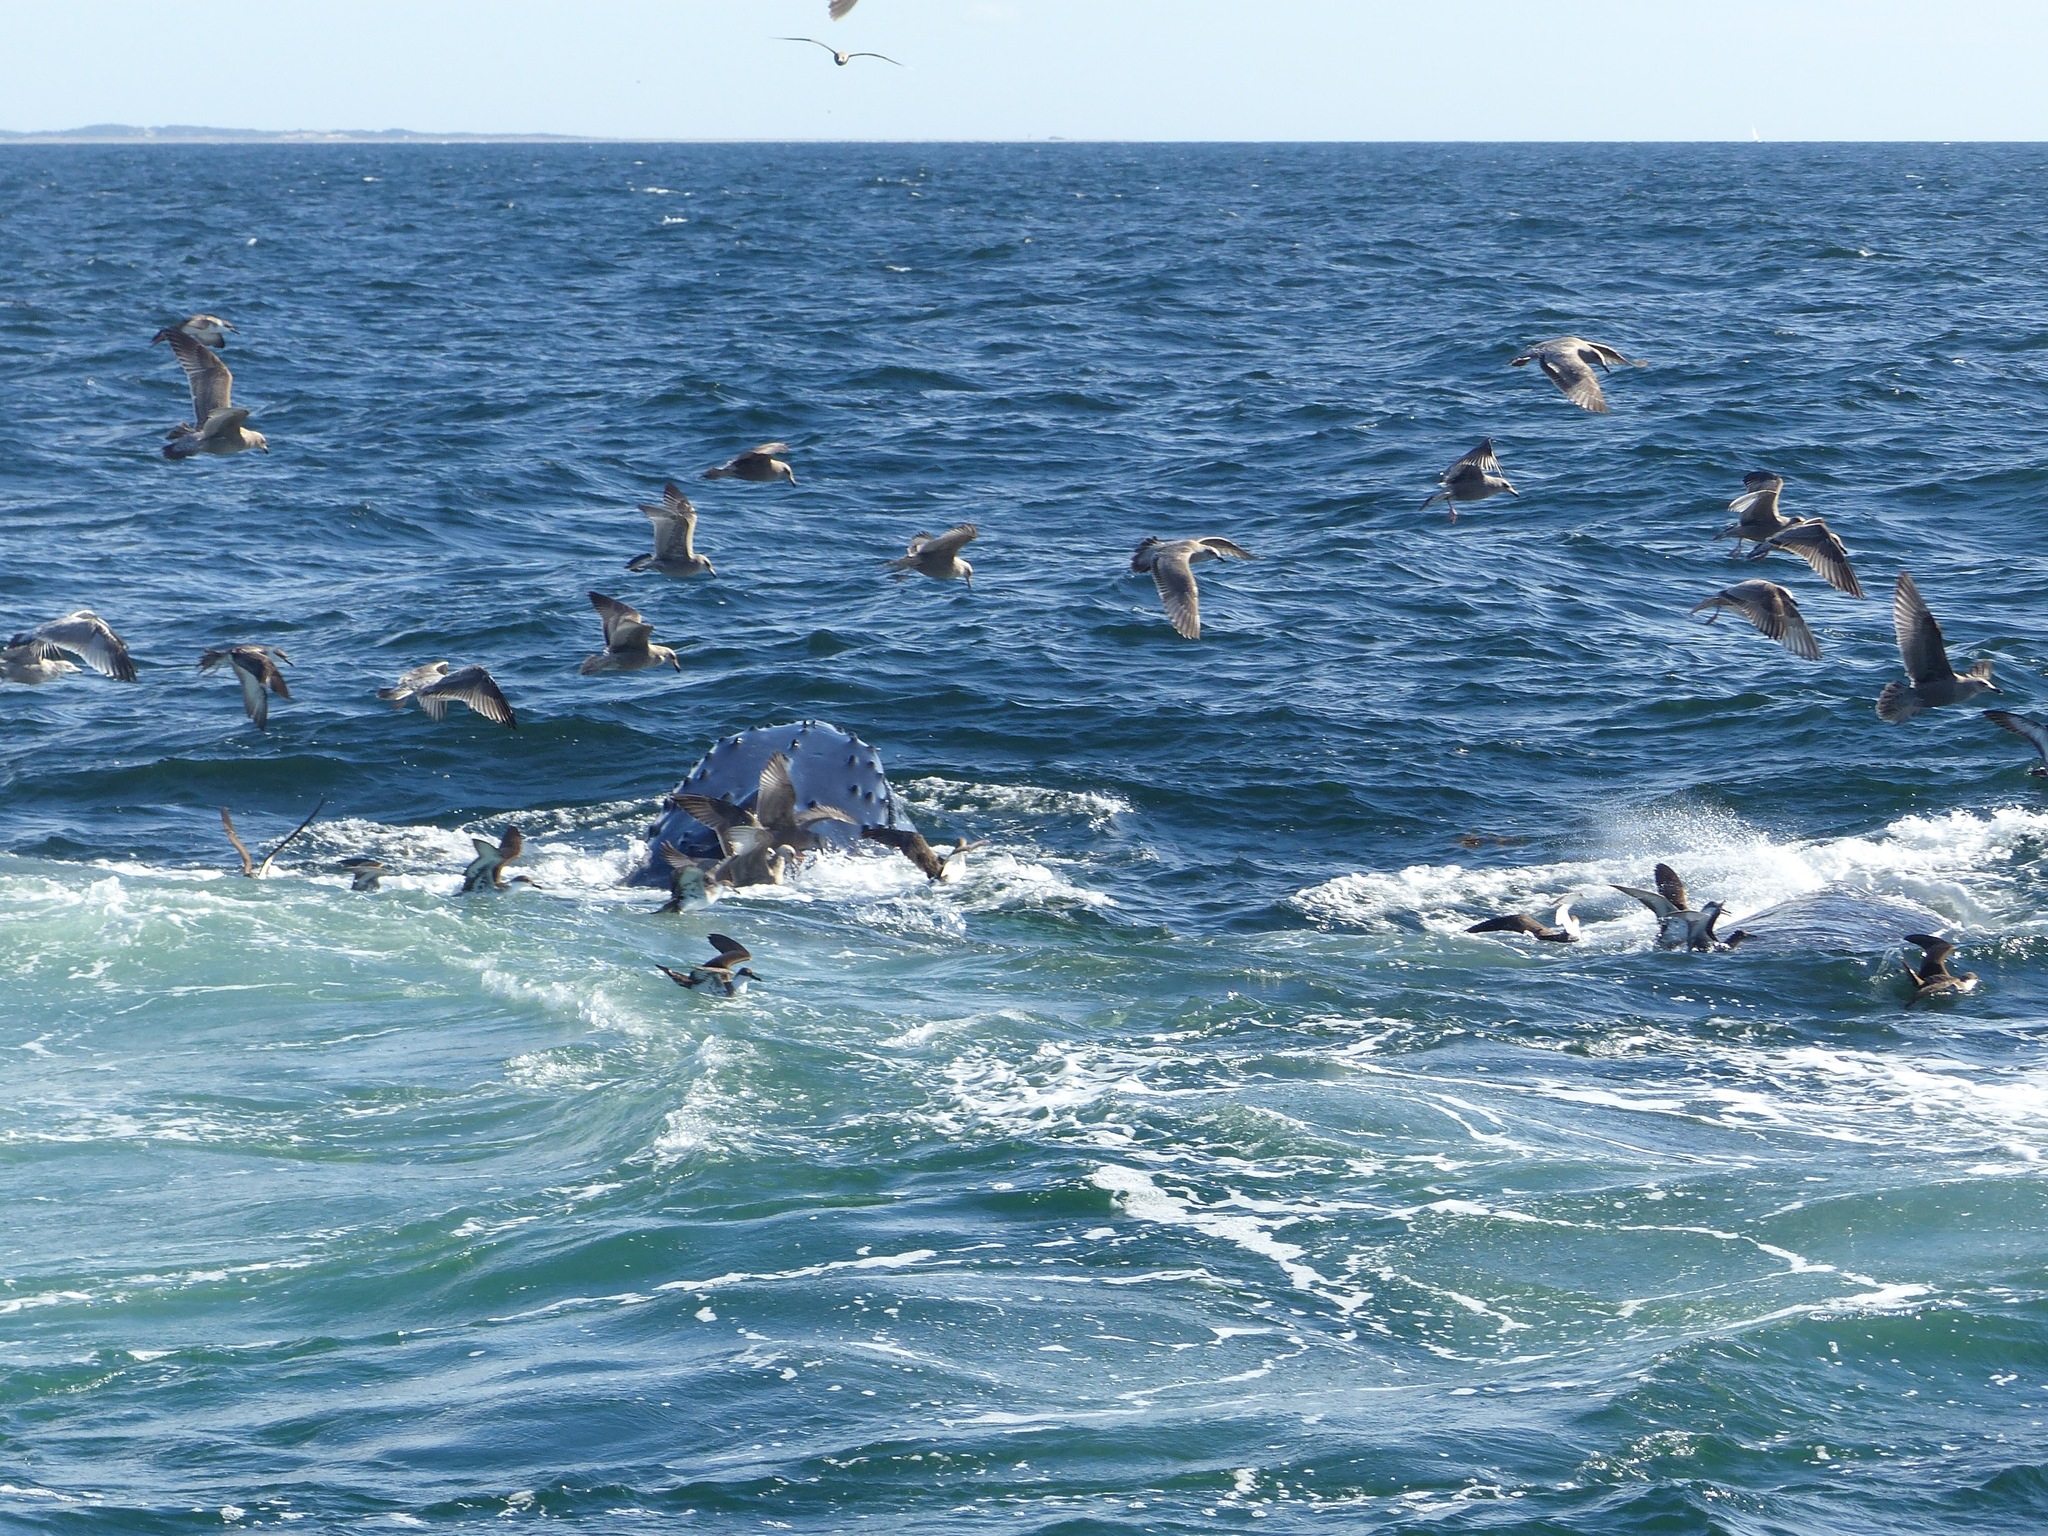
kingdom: Animalia
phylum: Chordata
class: Mammalia
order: Cetacea
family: Balaenopteridae
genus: Megaptera
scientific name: Megaptera novaeangliae
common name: Humpback whale
